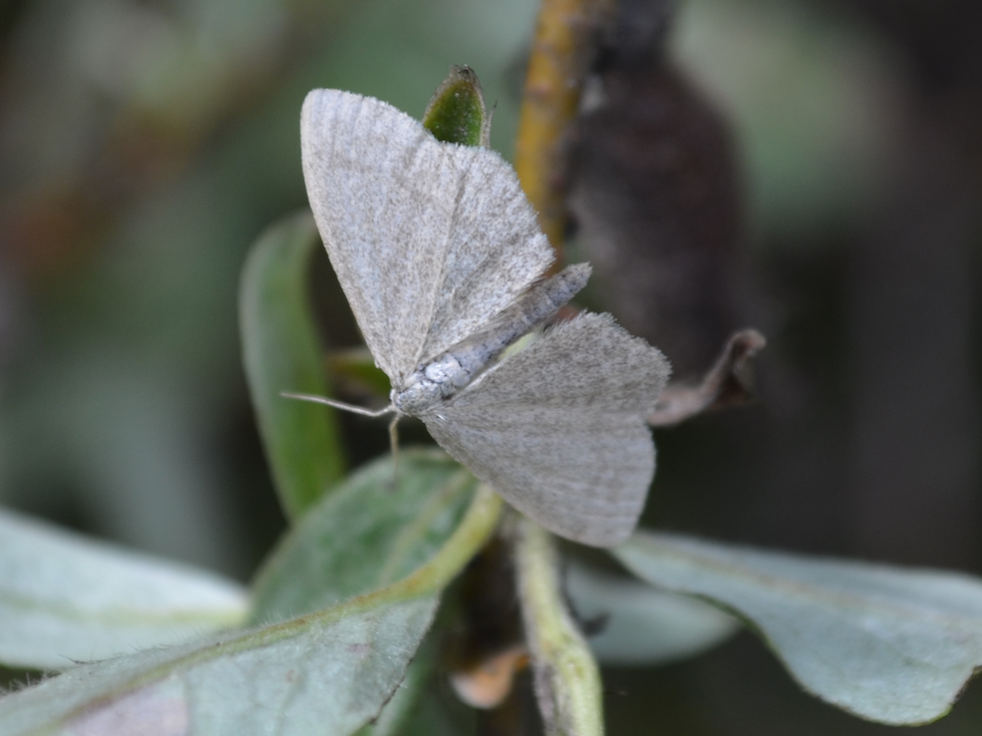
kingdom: Animalia
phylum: Arthropoda
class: Insecta
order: Lepidoptera
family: Geometridae
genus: Scopula
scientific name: Scopula frigidaria
